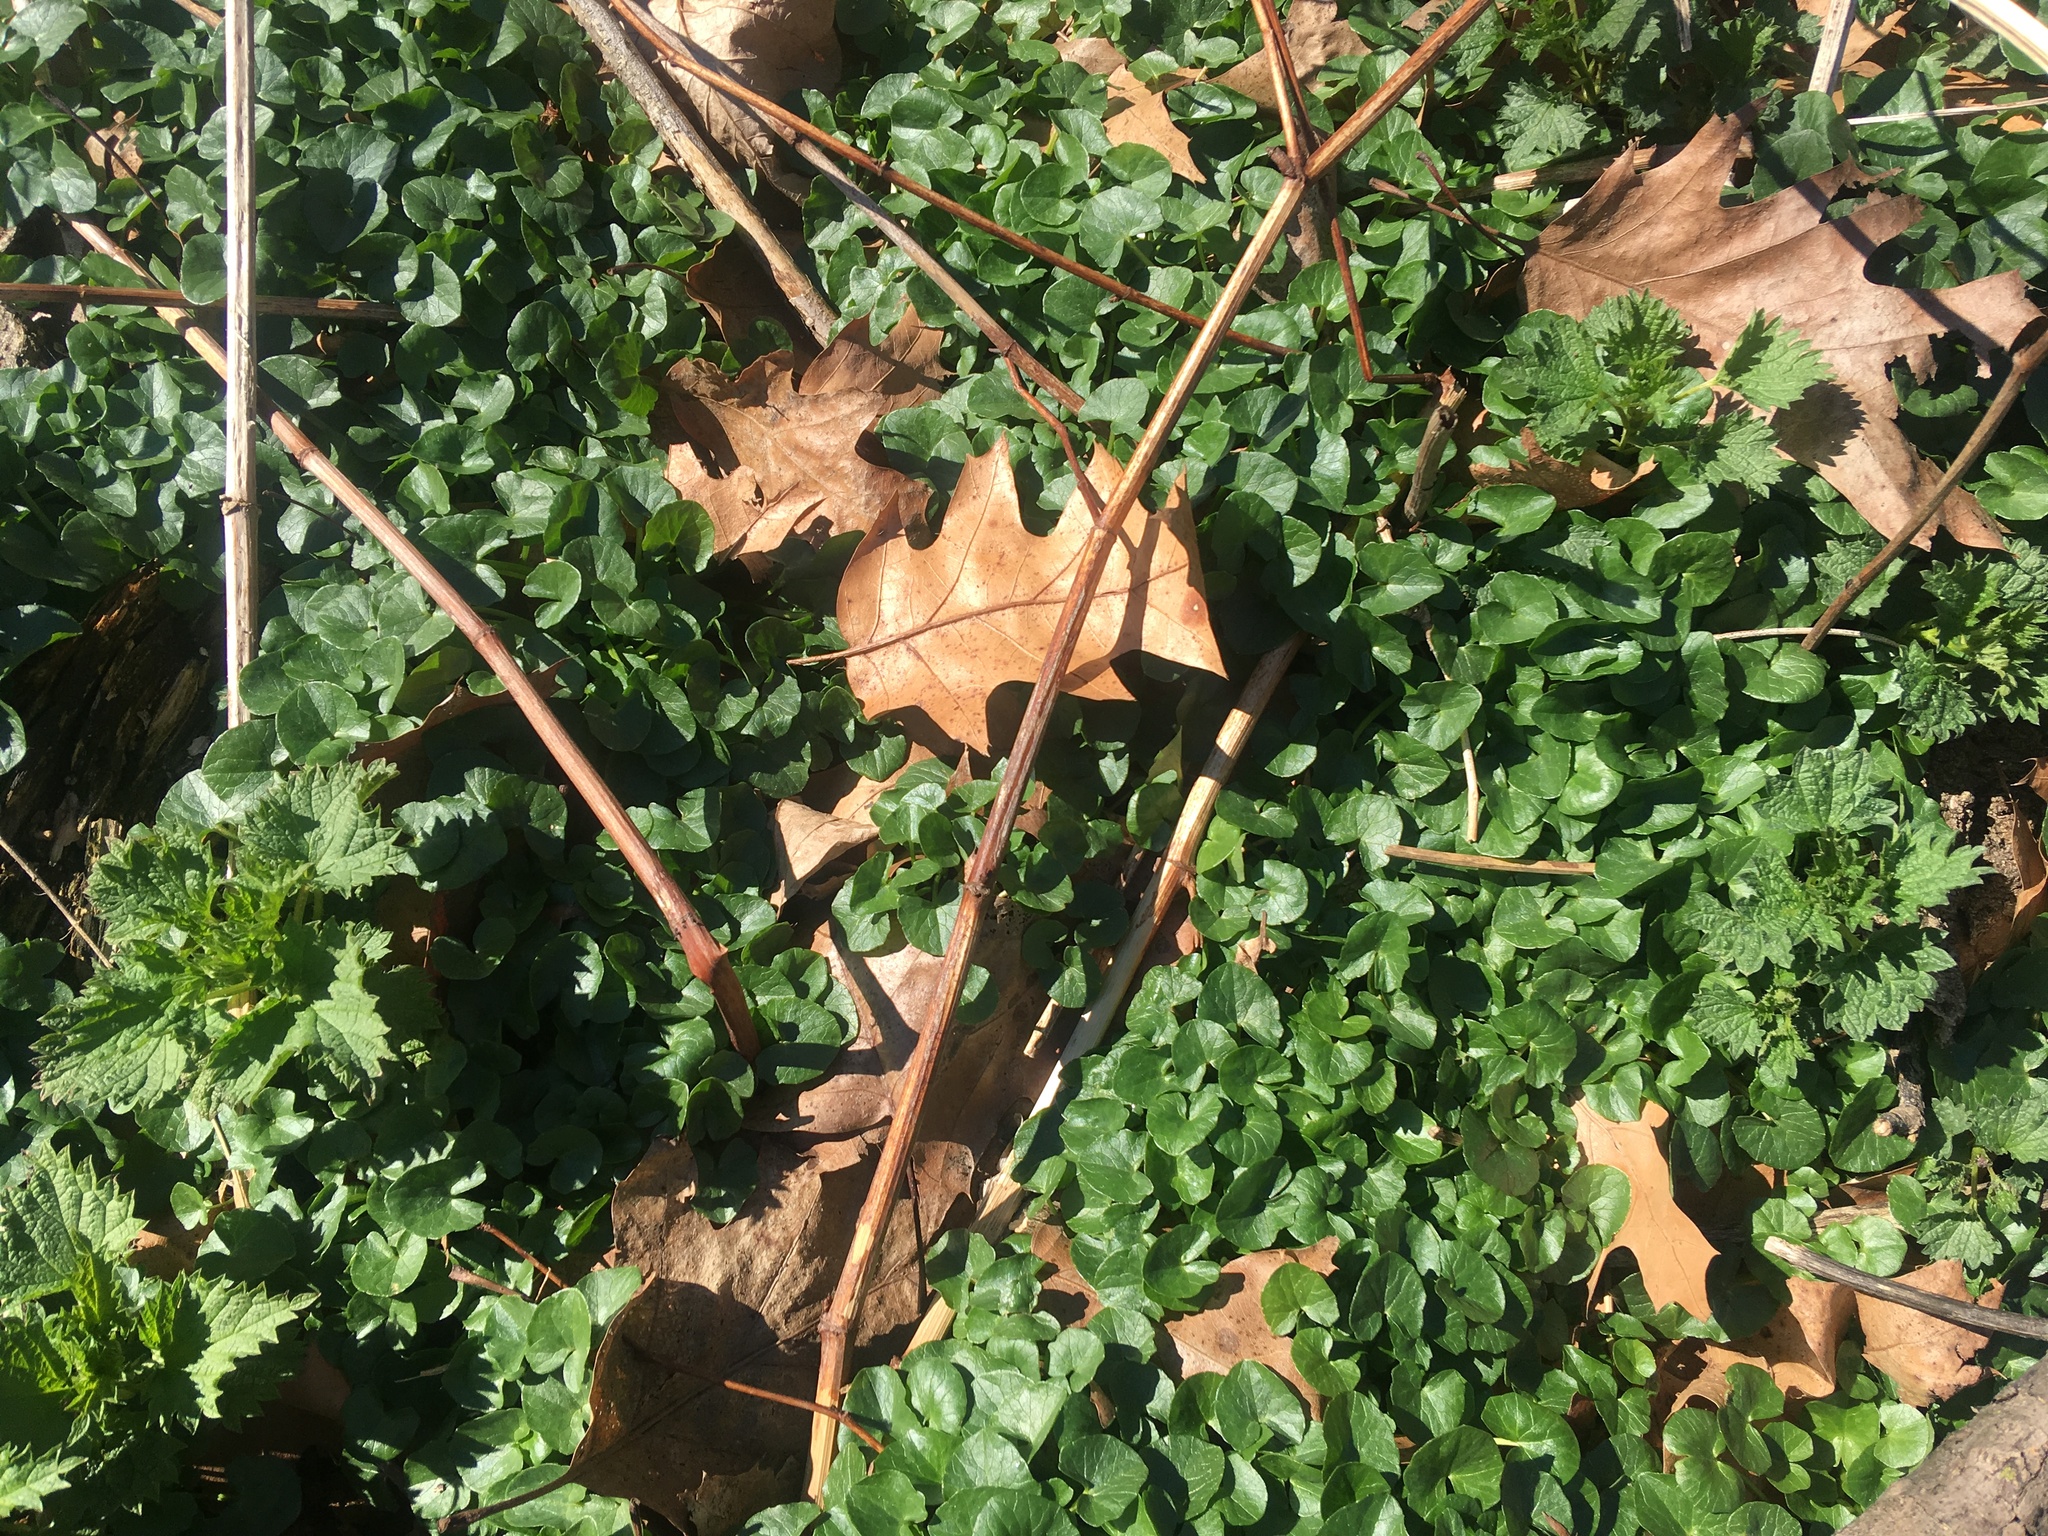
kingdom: Plantae
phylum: Tracheophyta
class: Magnoliopsida
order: Ranunculales
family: Ranunculaceae
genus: Ficaria
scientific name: Ficaria verna
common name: Lesser celandine
